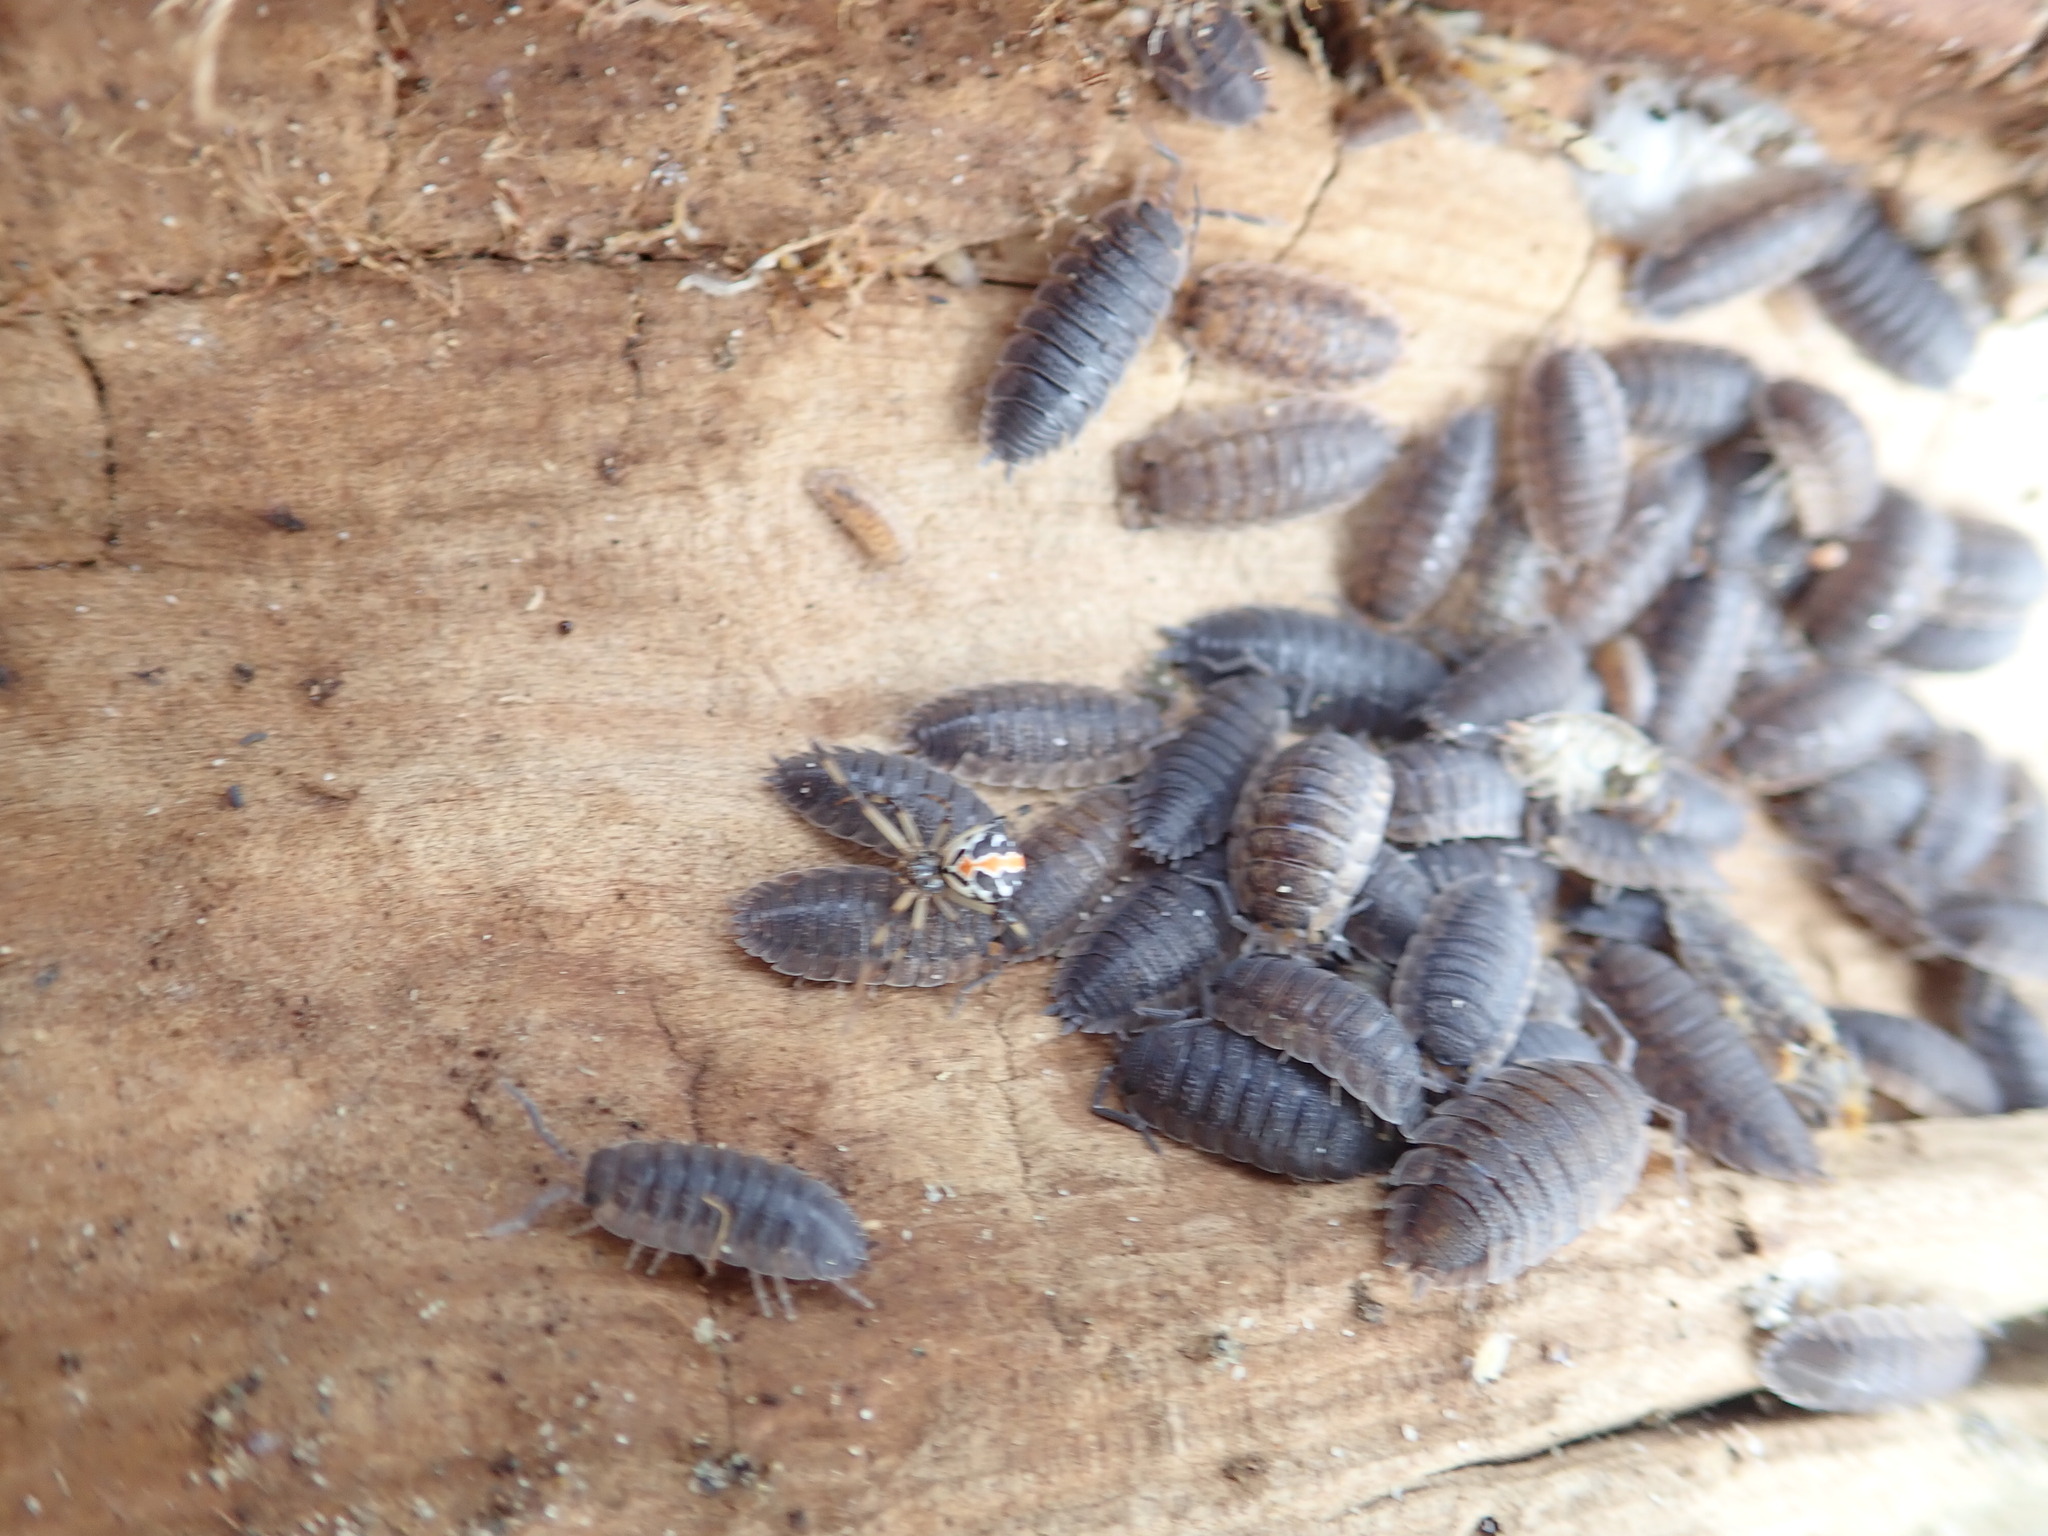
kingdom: Animalia
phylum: Arthropoda
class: Malacostraca
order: Isopoda
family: Porcellionidae
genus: Porcellio
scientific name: Porcellio scaber
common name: Common rough woodlouse
